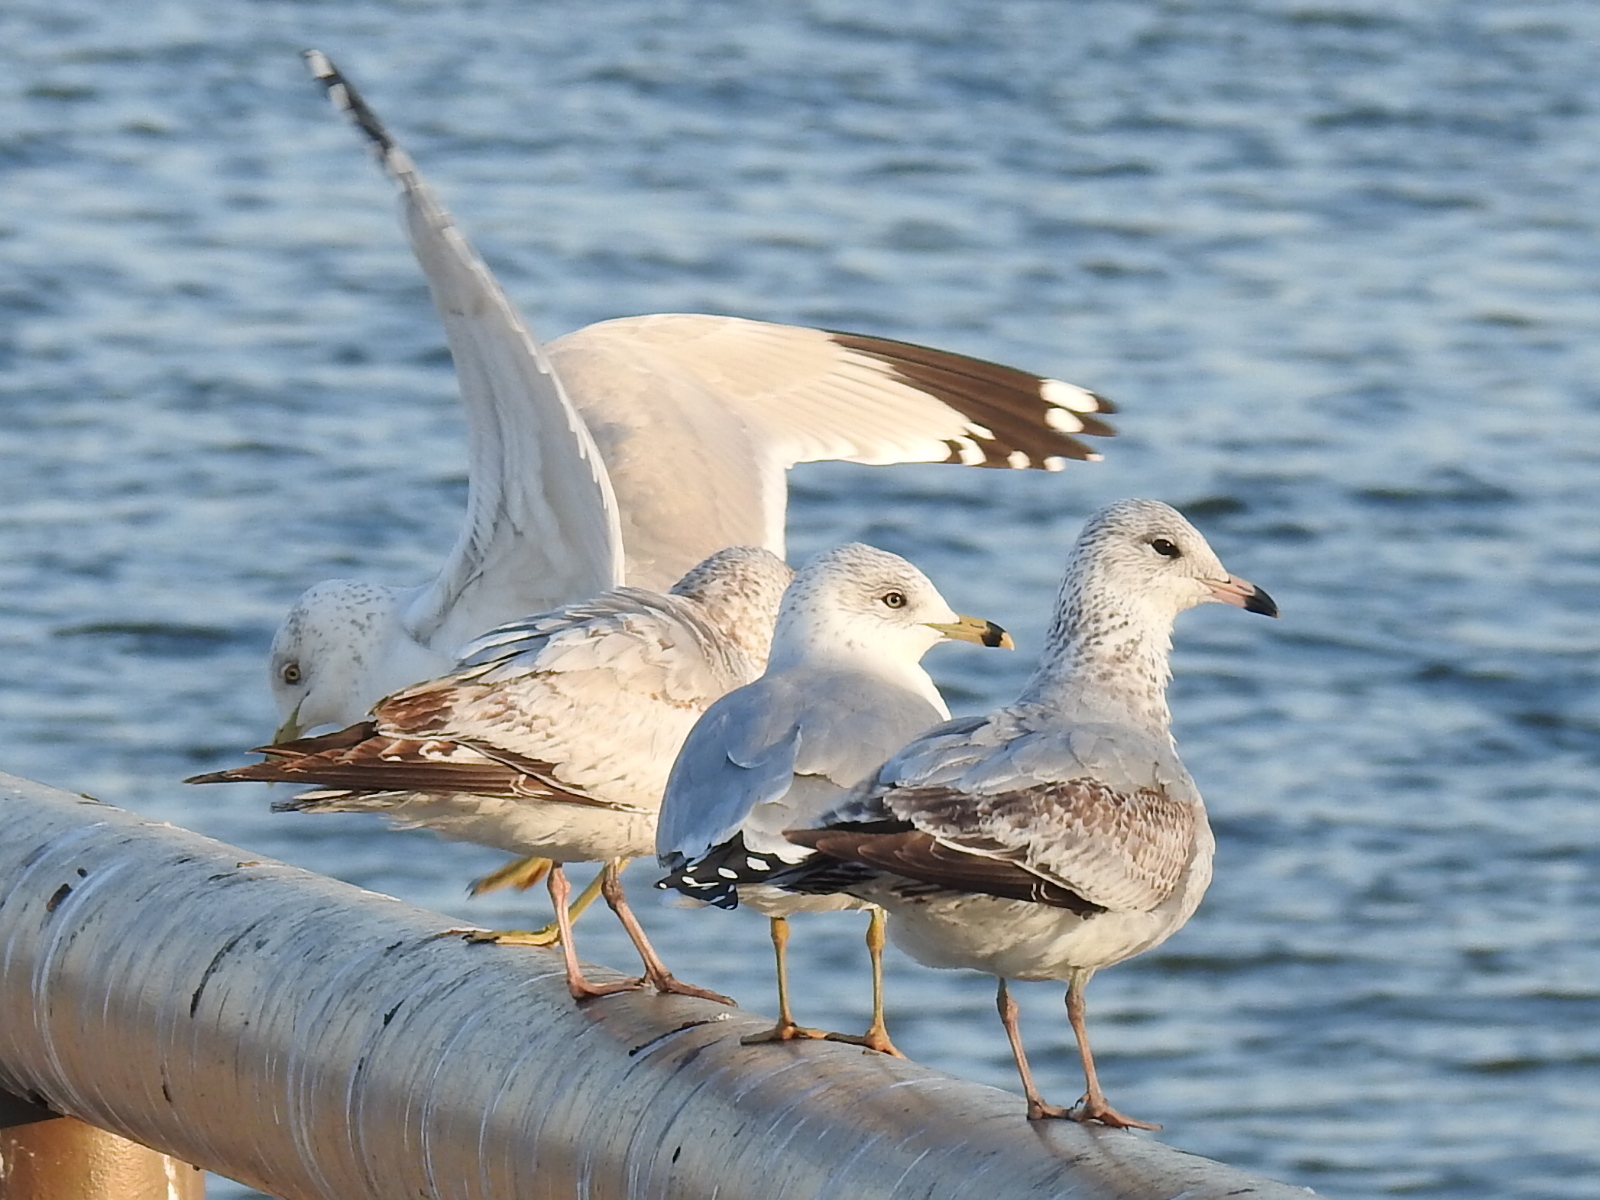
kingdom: Animalia
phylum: Chordata
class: Aves
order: Charadriiformes
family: Laridae
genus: Larus
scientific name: Larus delawarensis
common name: Ring-billed gull
